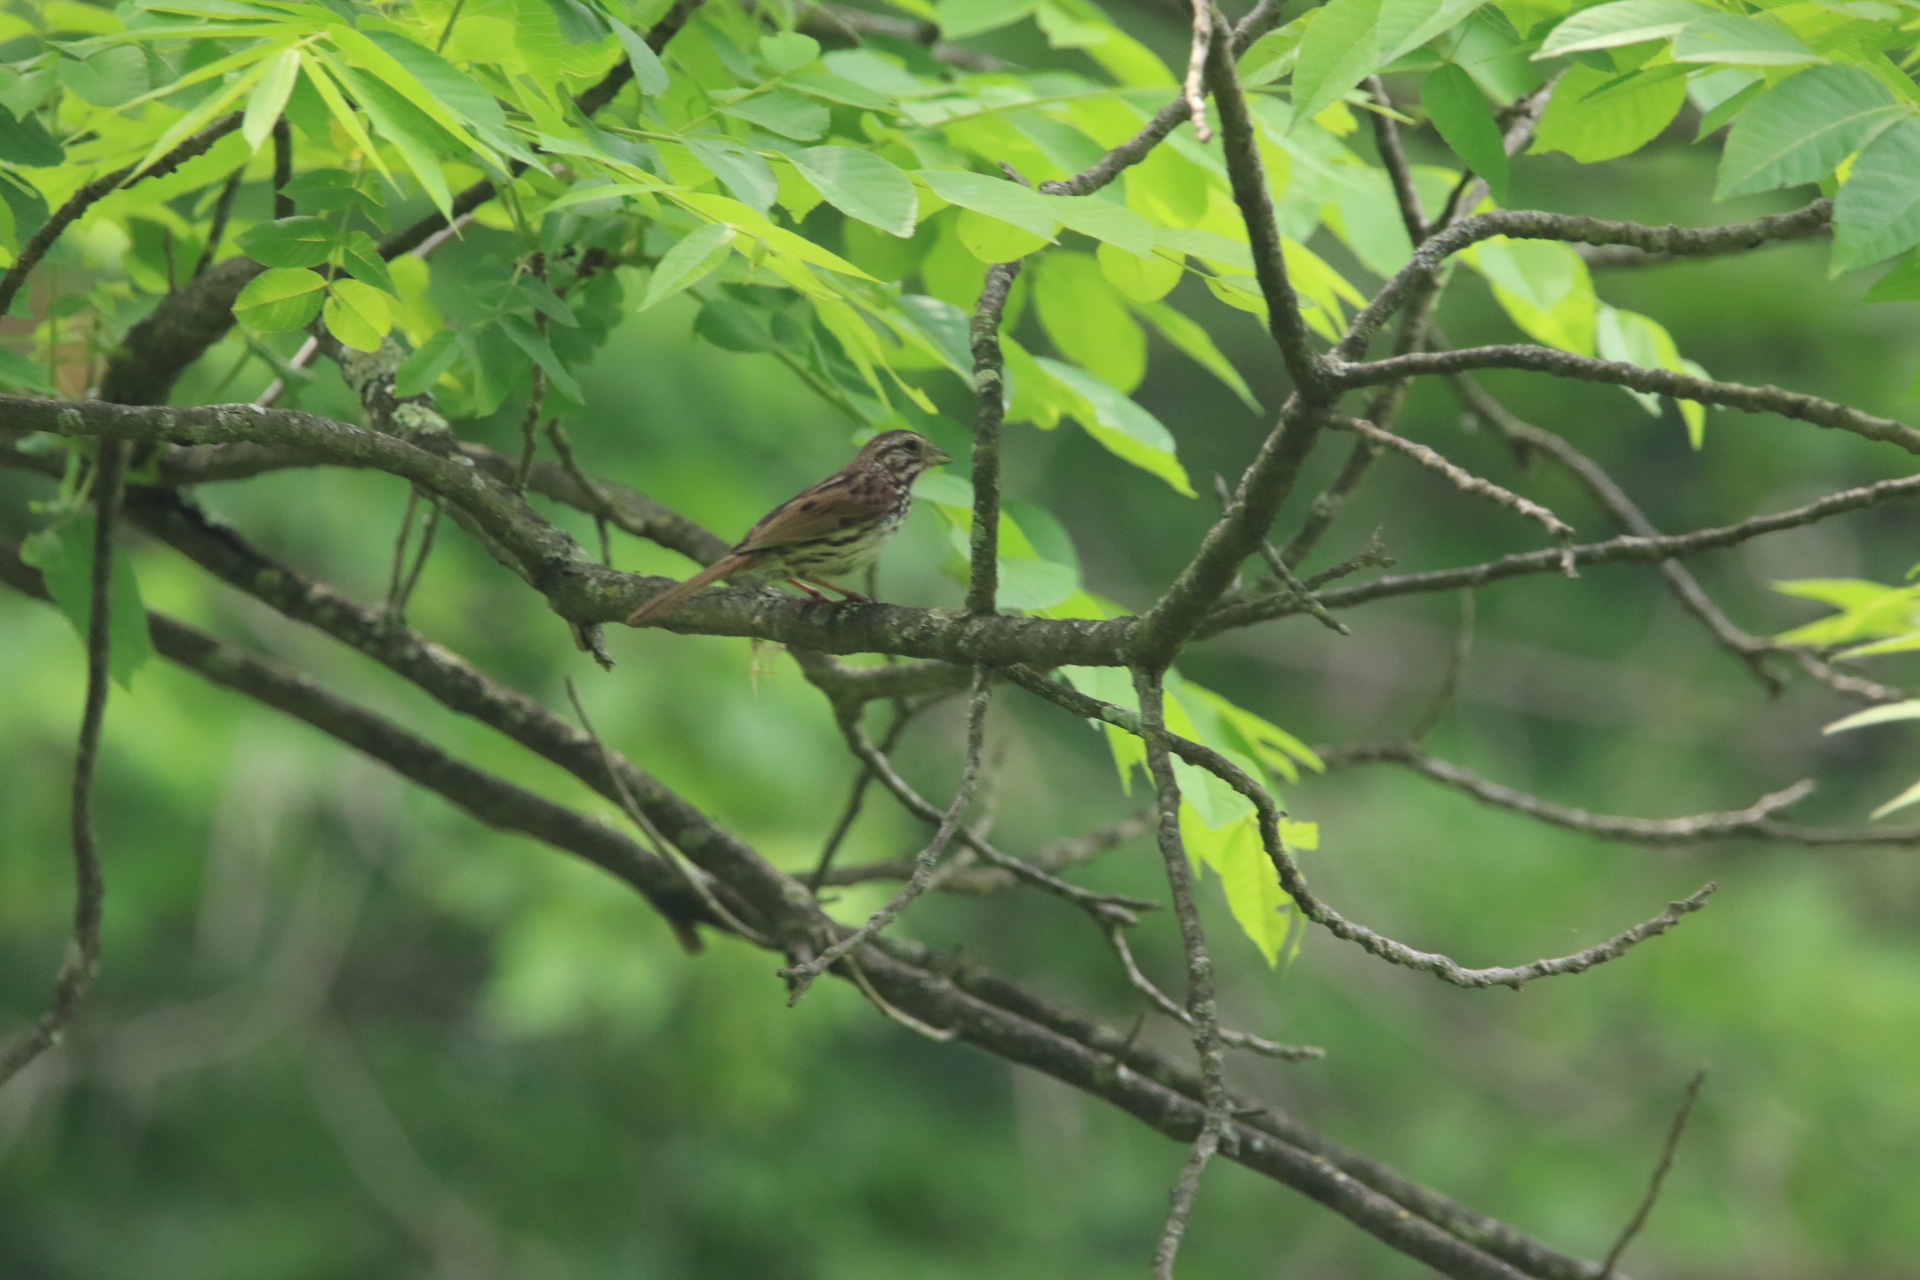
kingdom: Animalia
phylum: Chordata
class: Aves
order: Passeriformes
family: Passerellidae
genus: Melospiza
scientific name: Melospiza melodia
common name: Song sparrow
